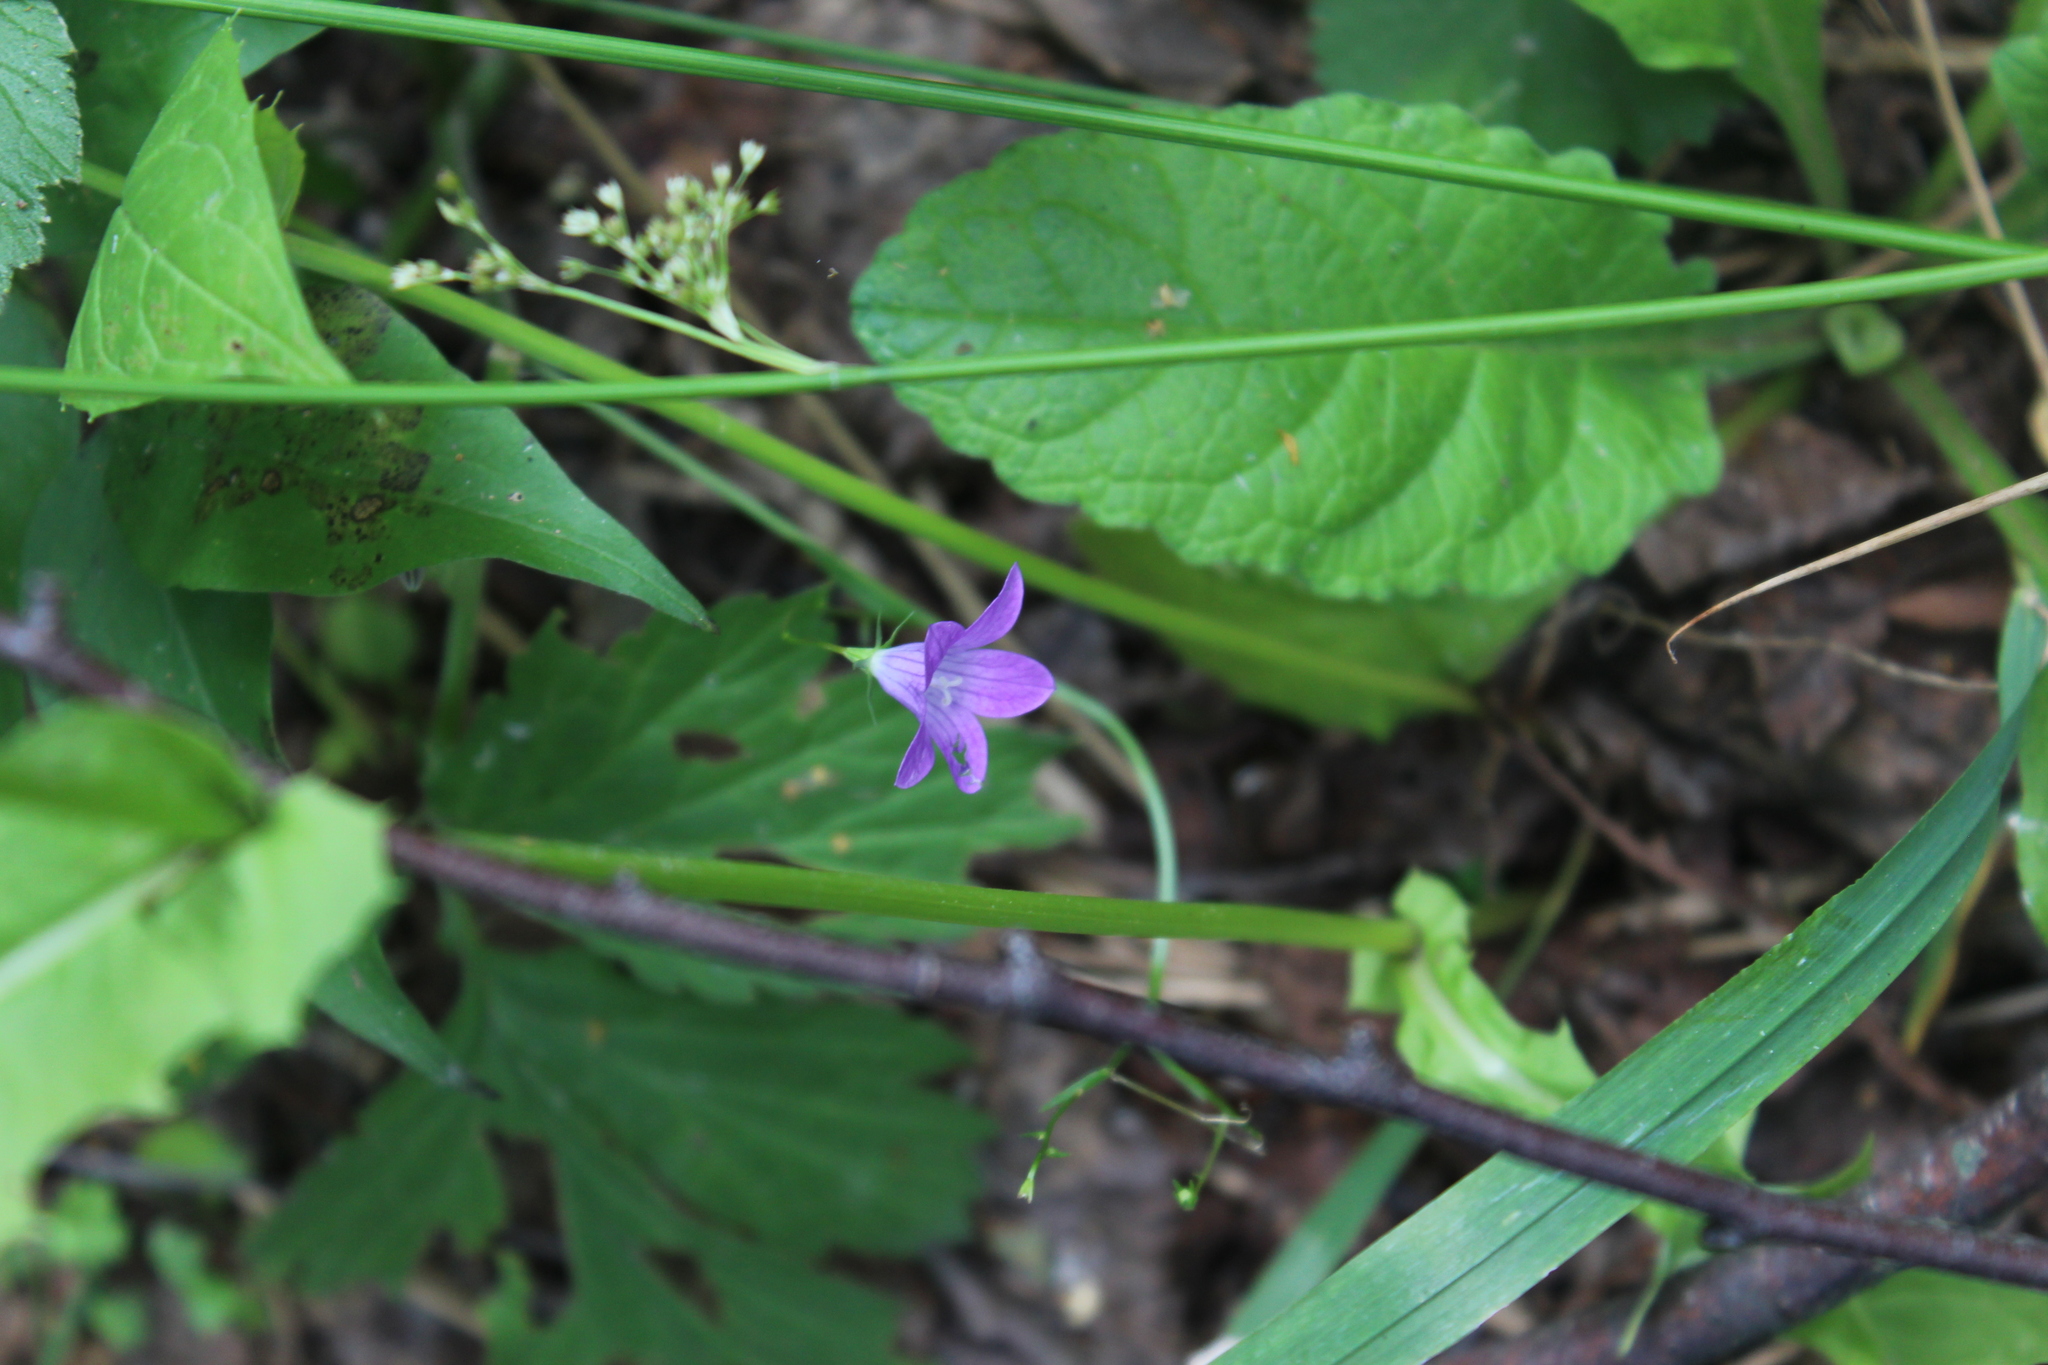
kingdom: Plantae
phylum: Tracheophyta
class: Magnoliopsida
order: Asterales
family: Campanulaceae
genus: Campanula
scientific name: Campanula patula
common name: Spreading bellflower
